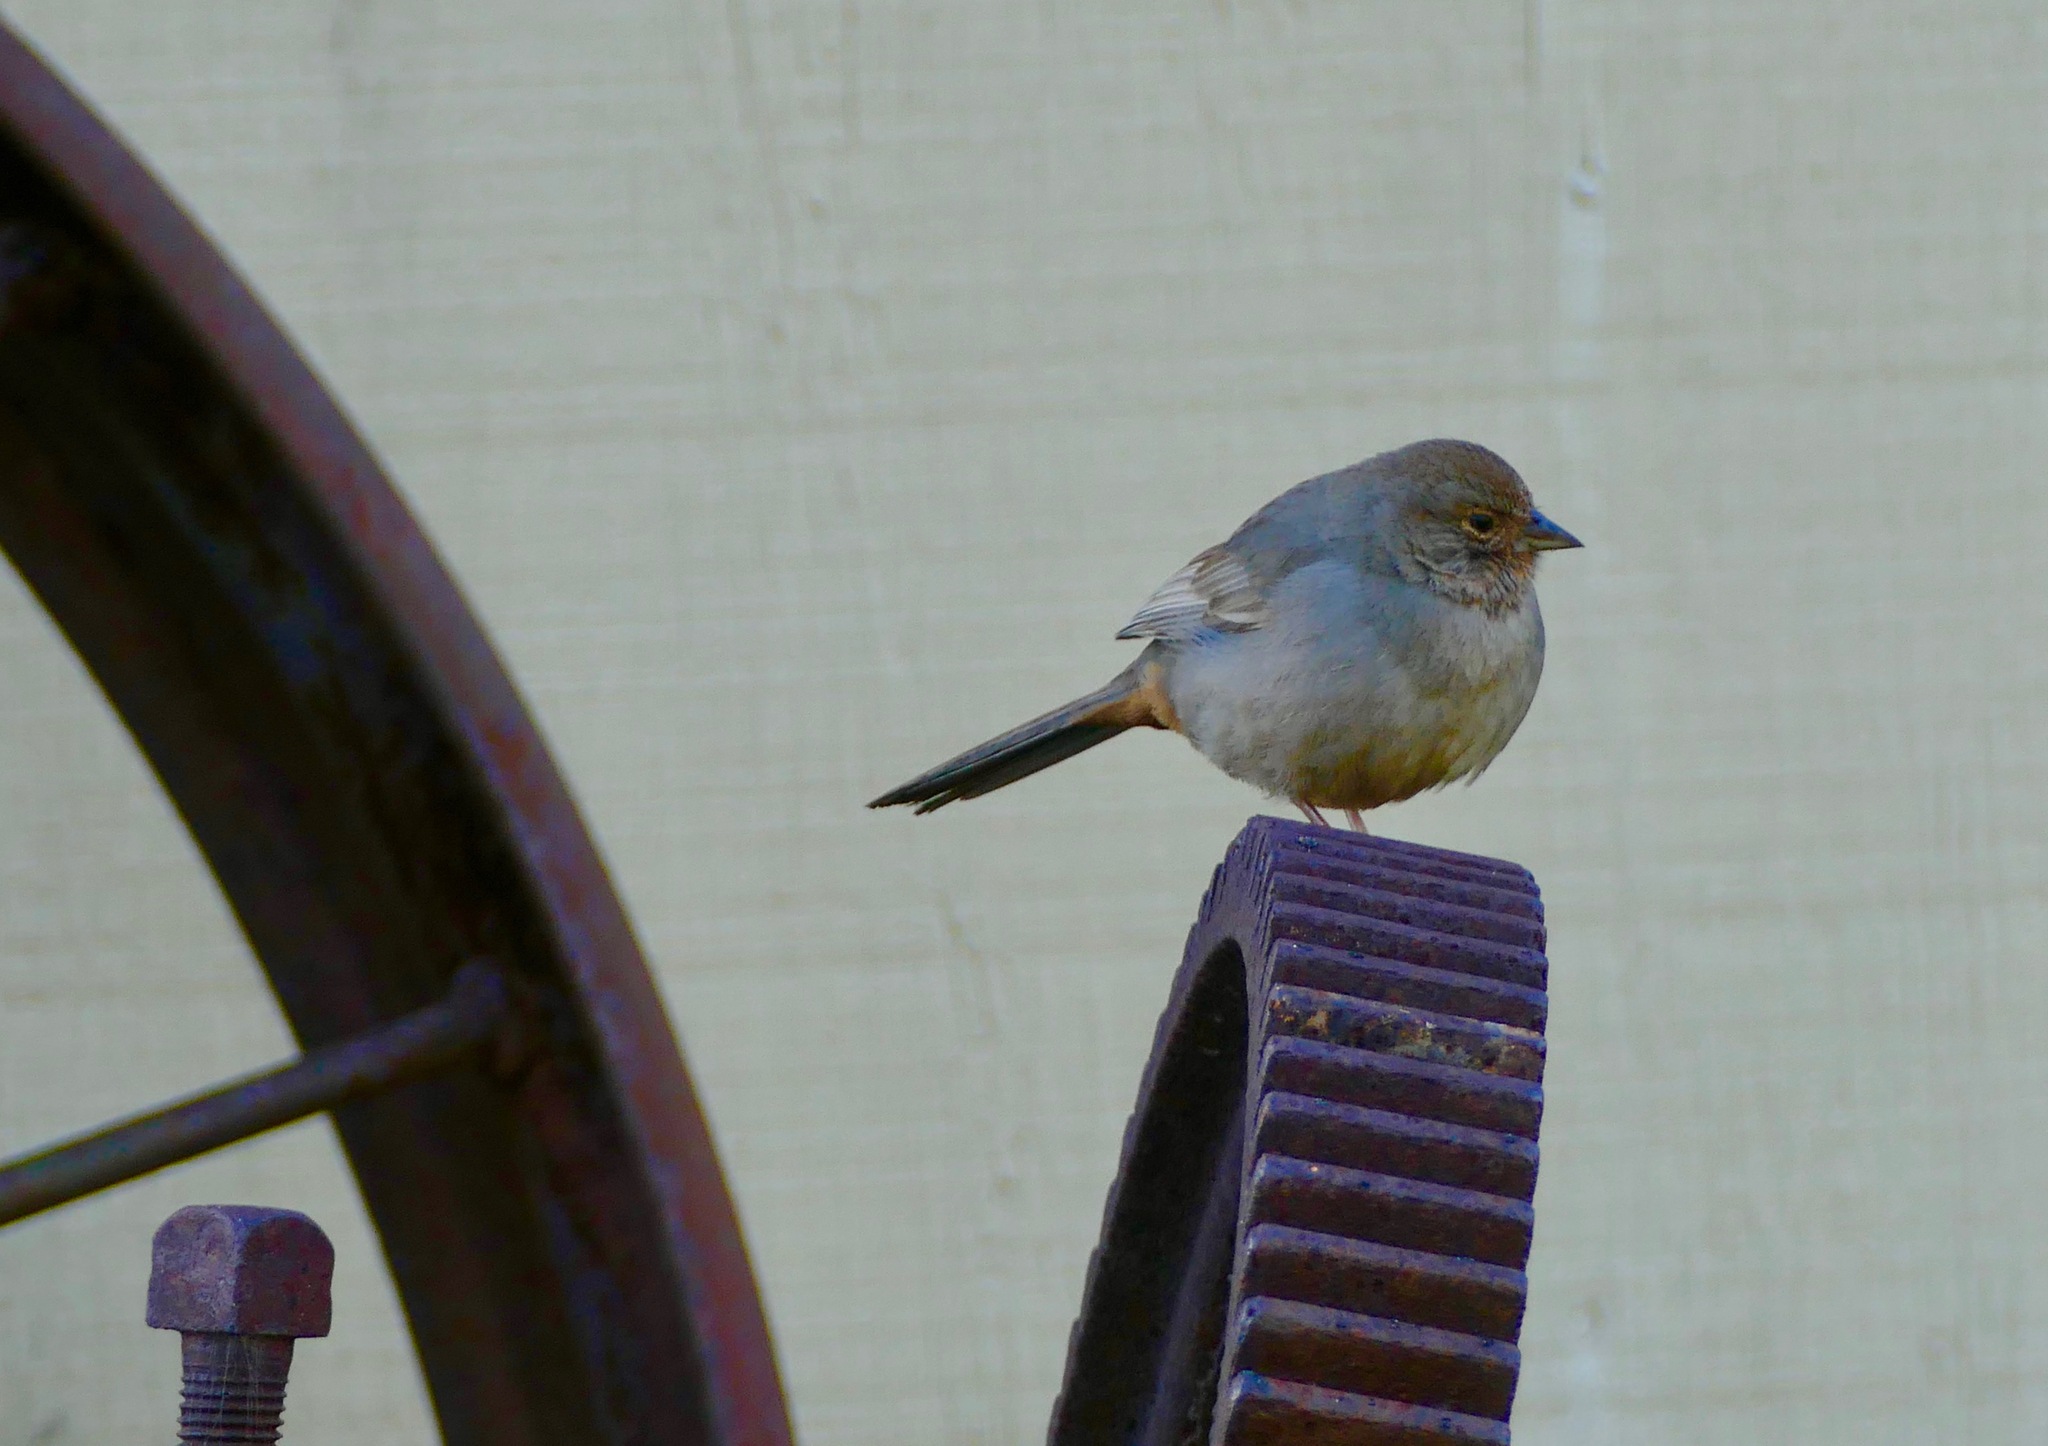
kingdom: Animalia
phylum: Chordata
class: Aves
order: Passeriformes
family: Passerellidae
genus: Melozone
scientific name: Melozone crissalis
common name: California towhee
